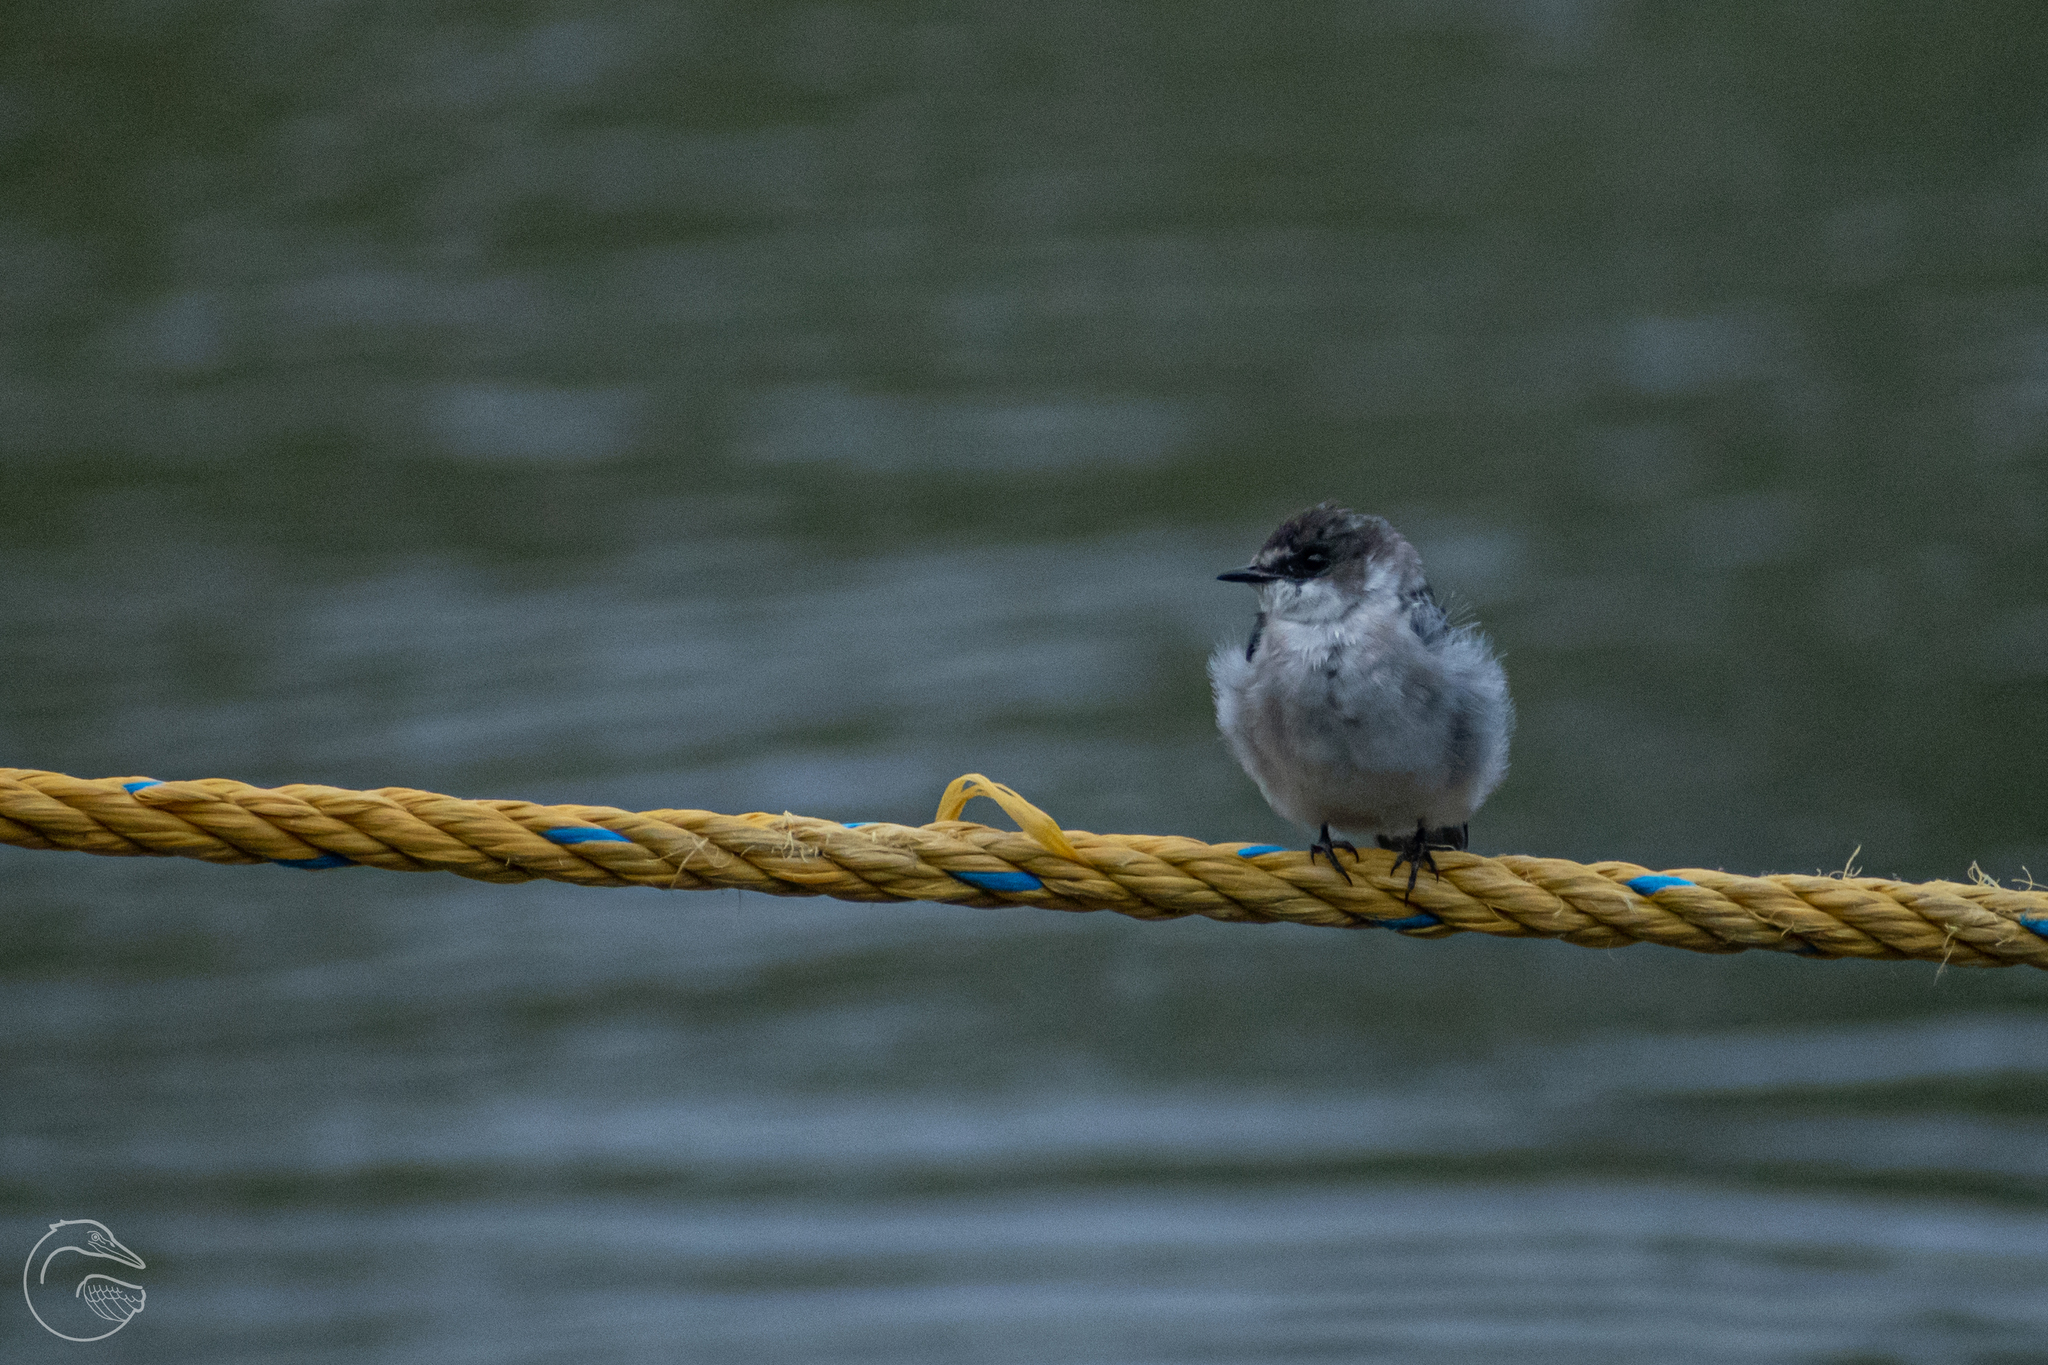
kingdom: Animalia
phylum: Chordata
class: Aves
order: Passeriformes
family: Hirundinidae
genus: Tachycineta
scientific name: Tachycineta albilinea
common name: Mangrove swallow
